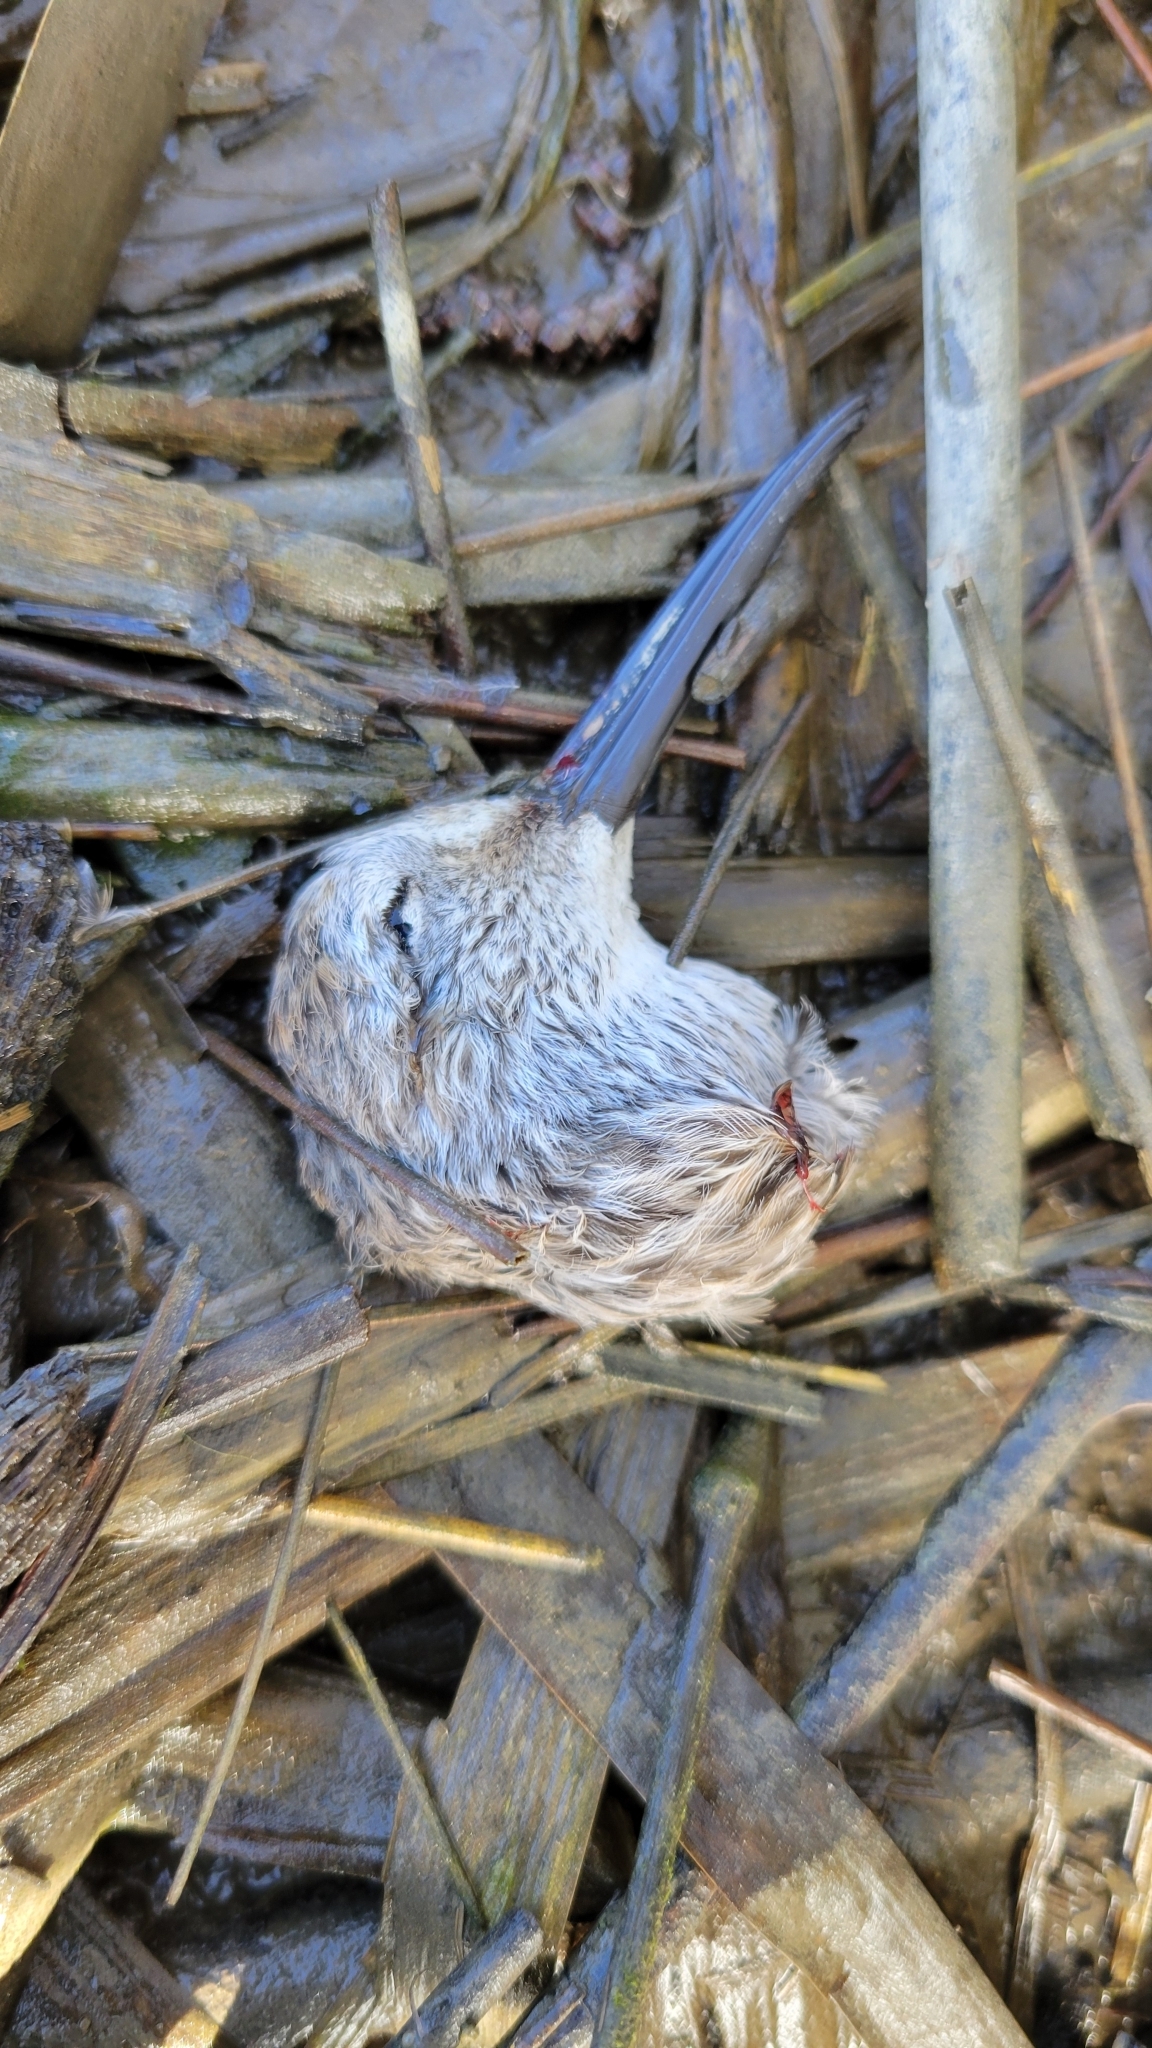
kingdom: Animalia
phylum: Chordata
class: Aves
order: Charadriiformes
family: Scolopacidae
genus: Calidris
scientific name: Calidris alpina
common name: Dunlin
